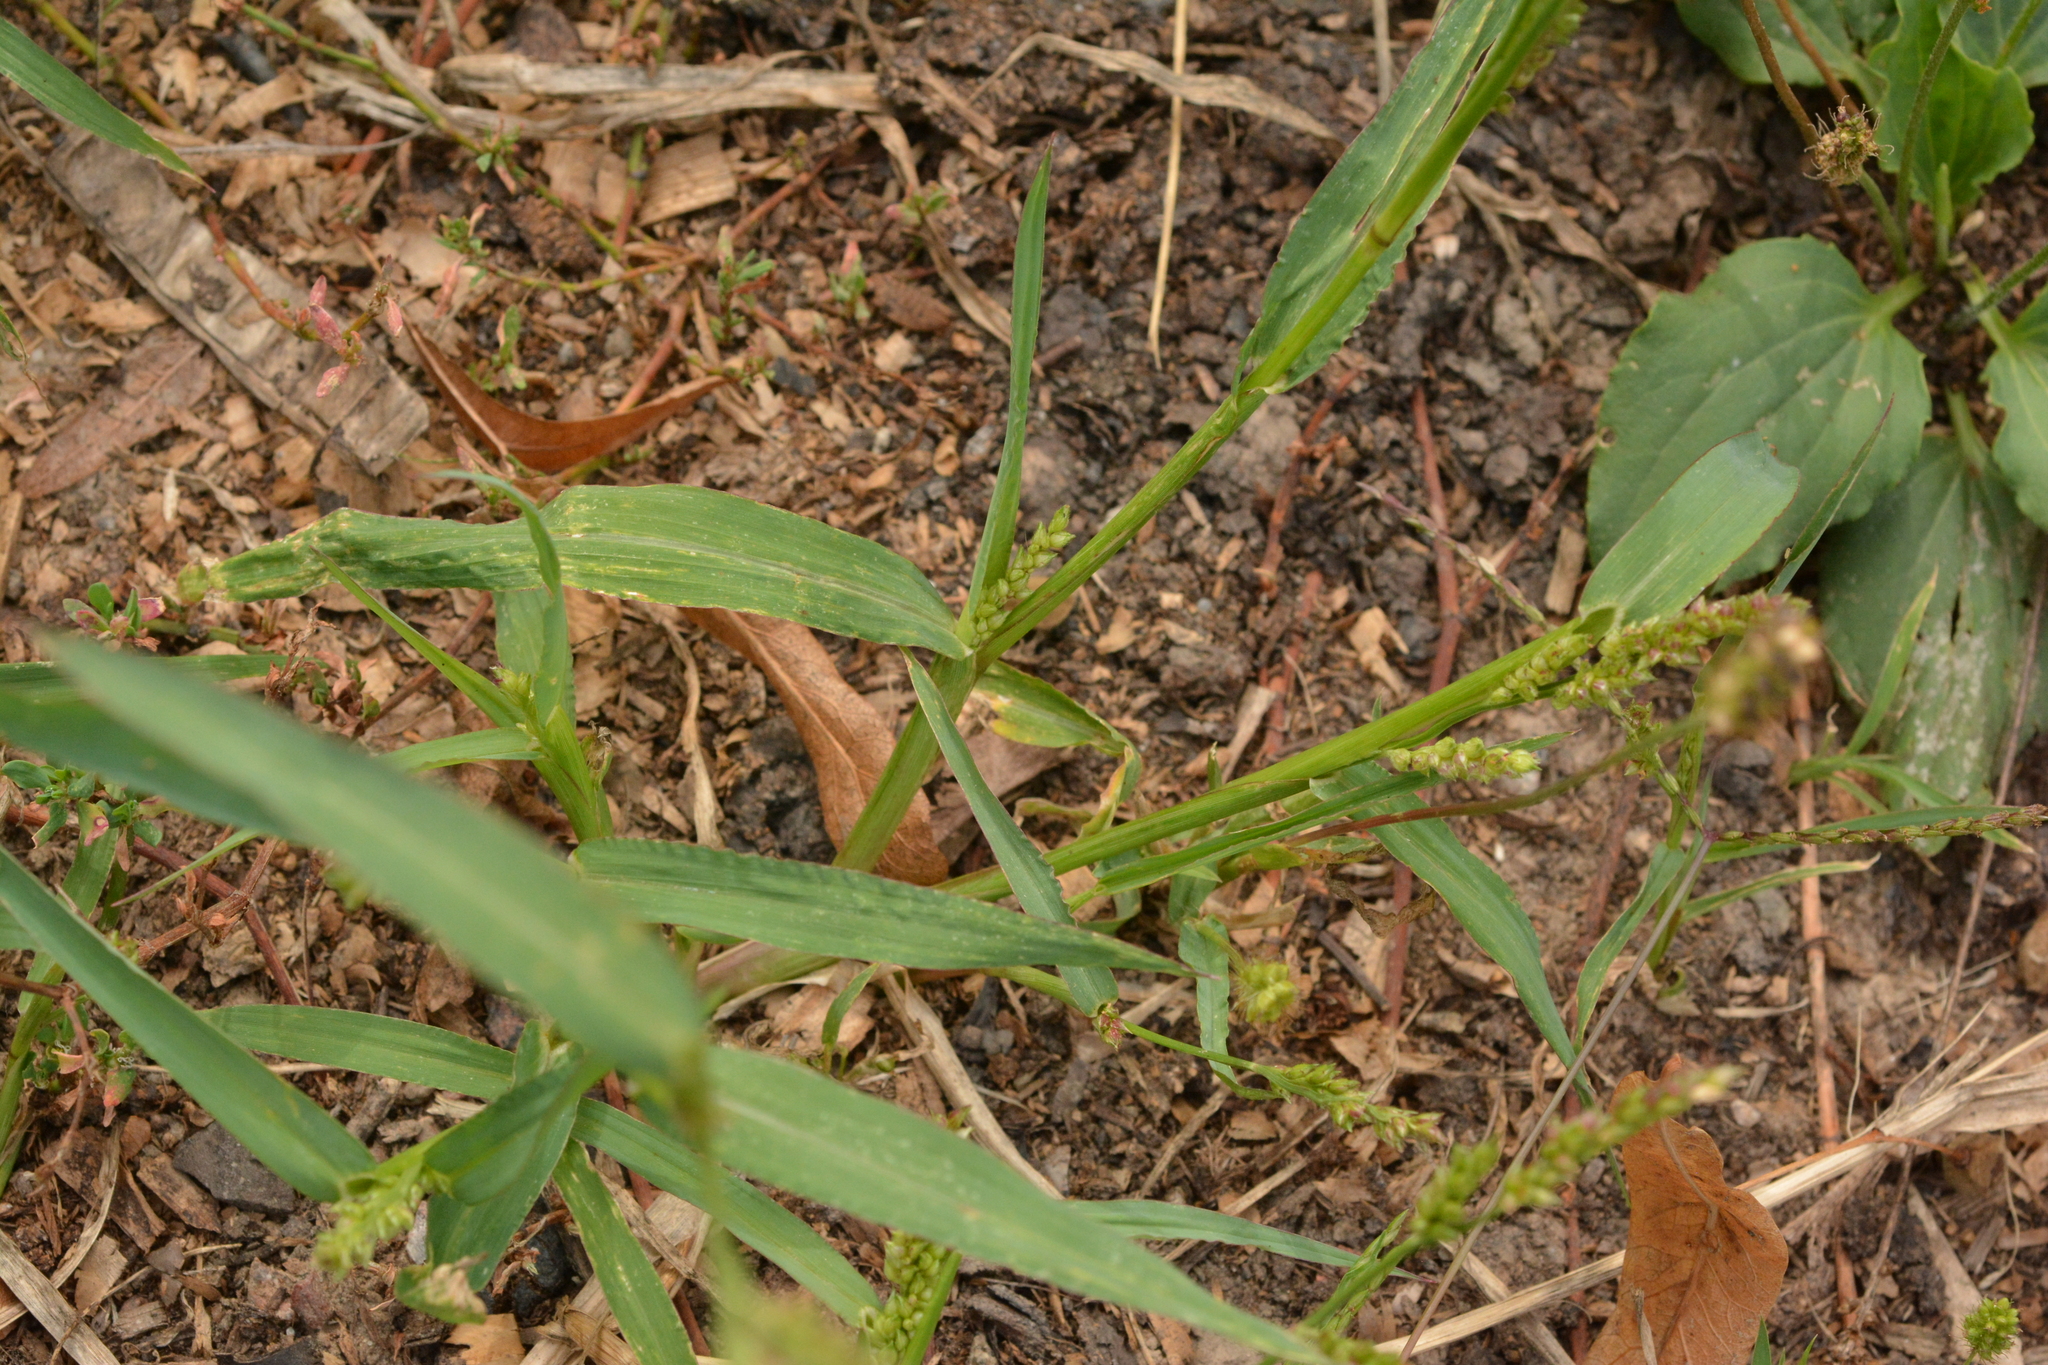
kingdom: Plantae
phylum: Tracheophyta
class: Liliopsida
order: Poales
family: Poaceae
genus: Echinochloa
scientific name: Echinochloa crus-galli
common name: Cockspur
